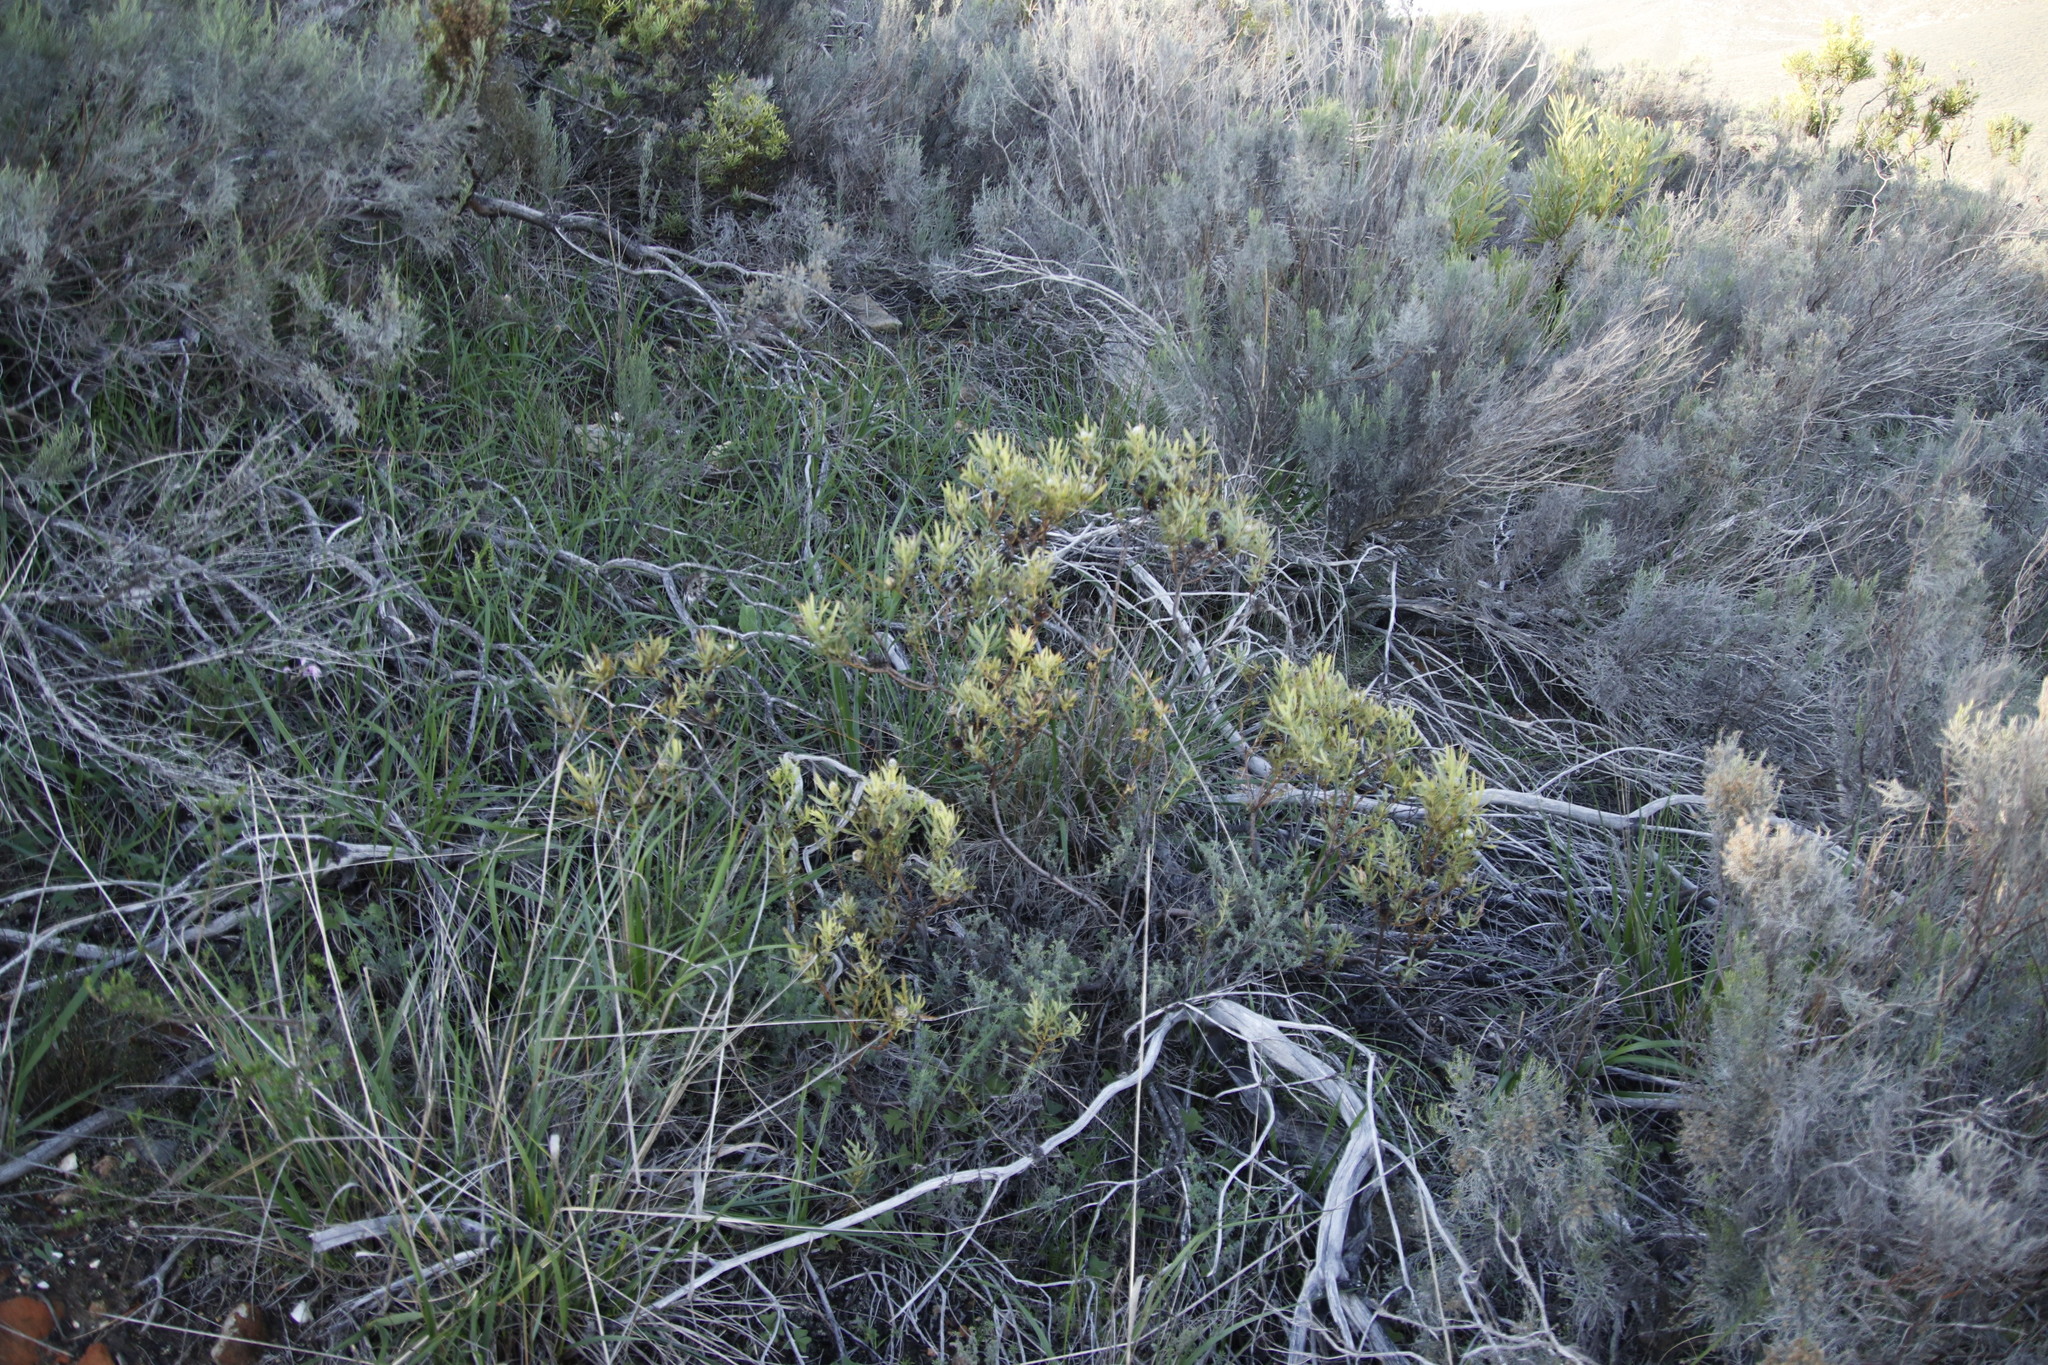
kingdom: Plantae
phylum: Tracheophyta
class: Magnoliopsida
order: Proteales
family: Proteaceae
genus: Leucadendron
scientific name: Leucadendron salignum
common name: Common sunshine conebush
